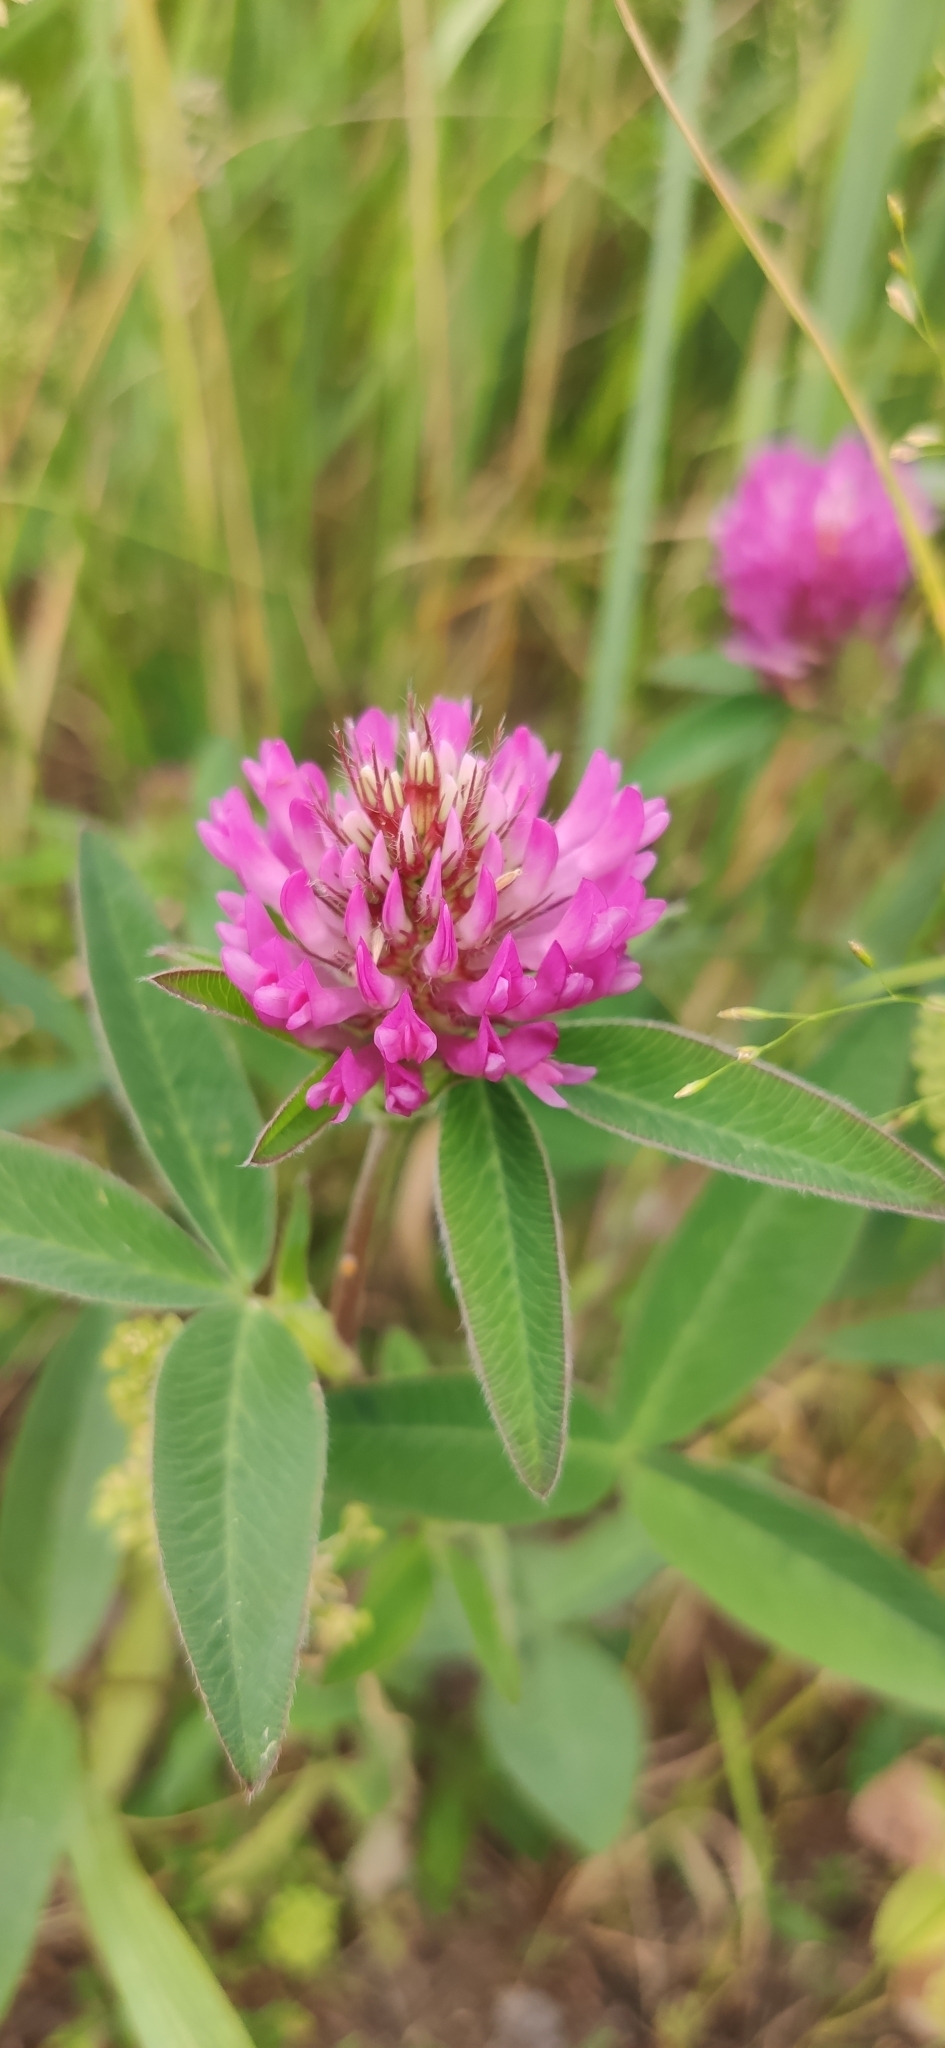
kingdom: Plantae
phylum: Tracheophyta
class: Magnoliopsida
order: Fabales
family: Fabaceae
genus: Trifolium
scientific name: Trifolium medium
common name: Zigzag clover
